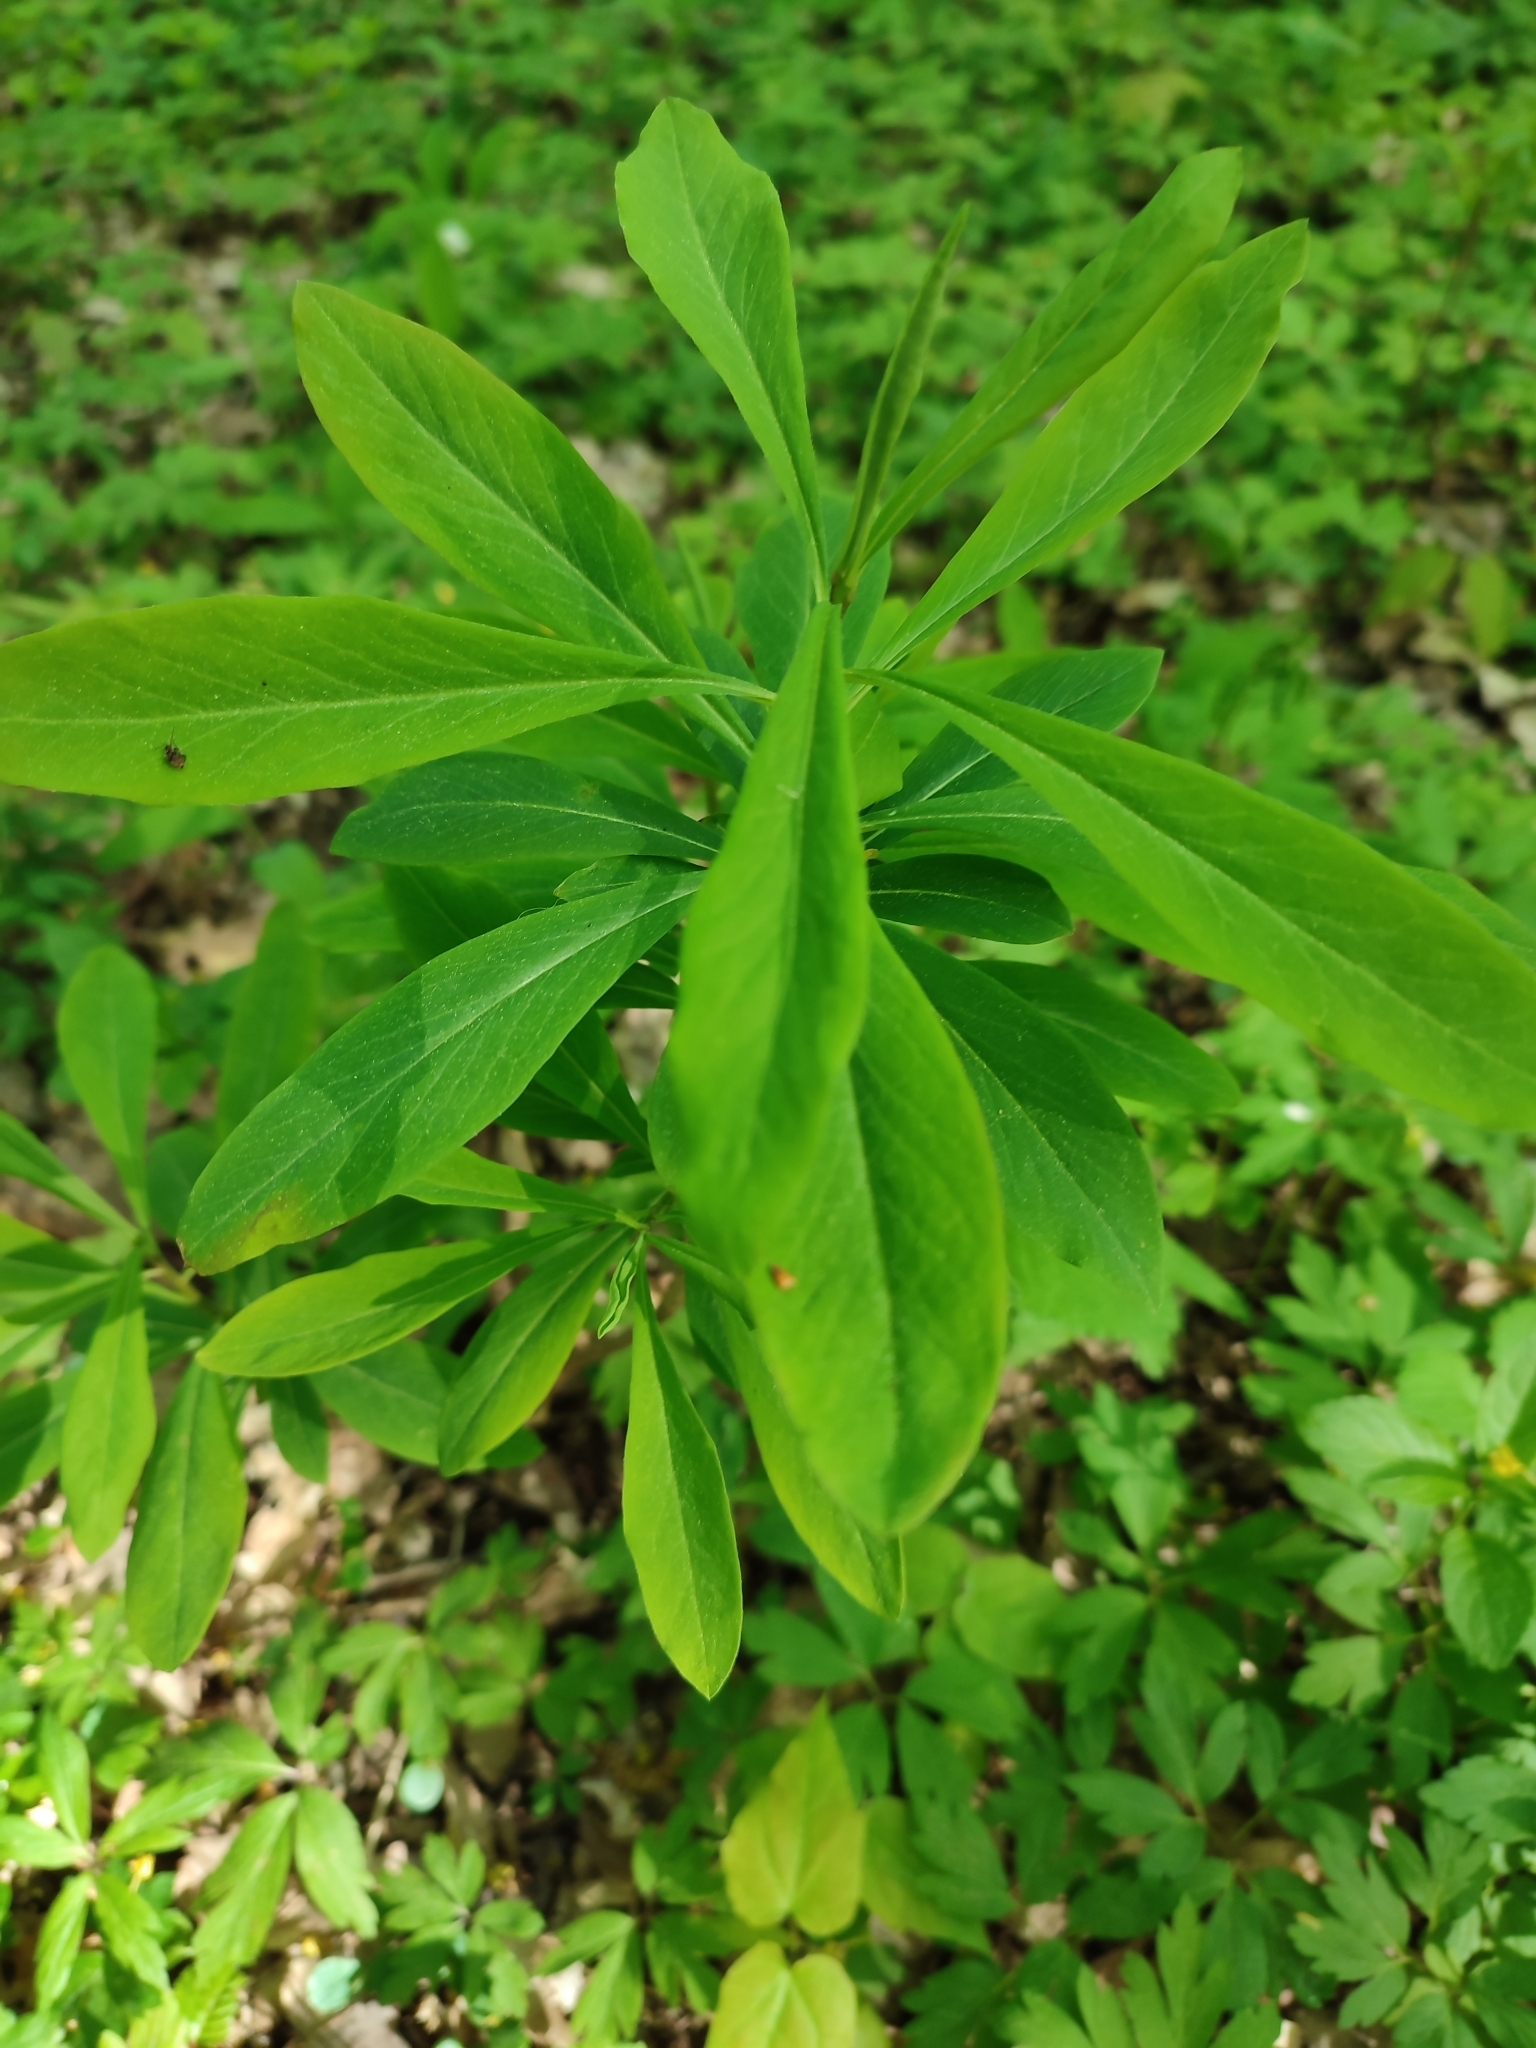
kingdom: Plantae
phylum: Tracheophyta
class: Magnoliopsida
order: Malvales
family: Thymelaeaceae
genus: Daphne
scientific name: Daphne mezereum
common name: Mezereon
